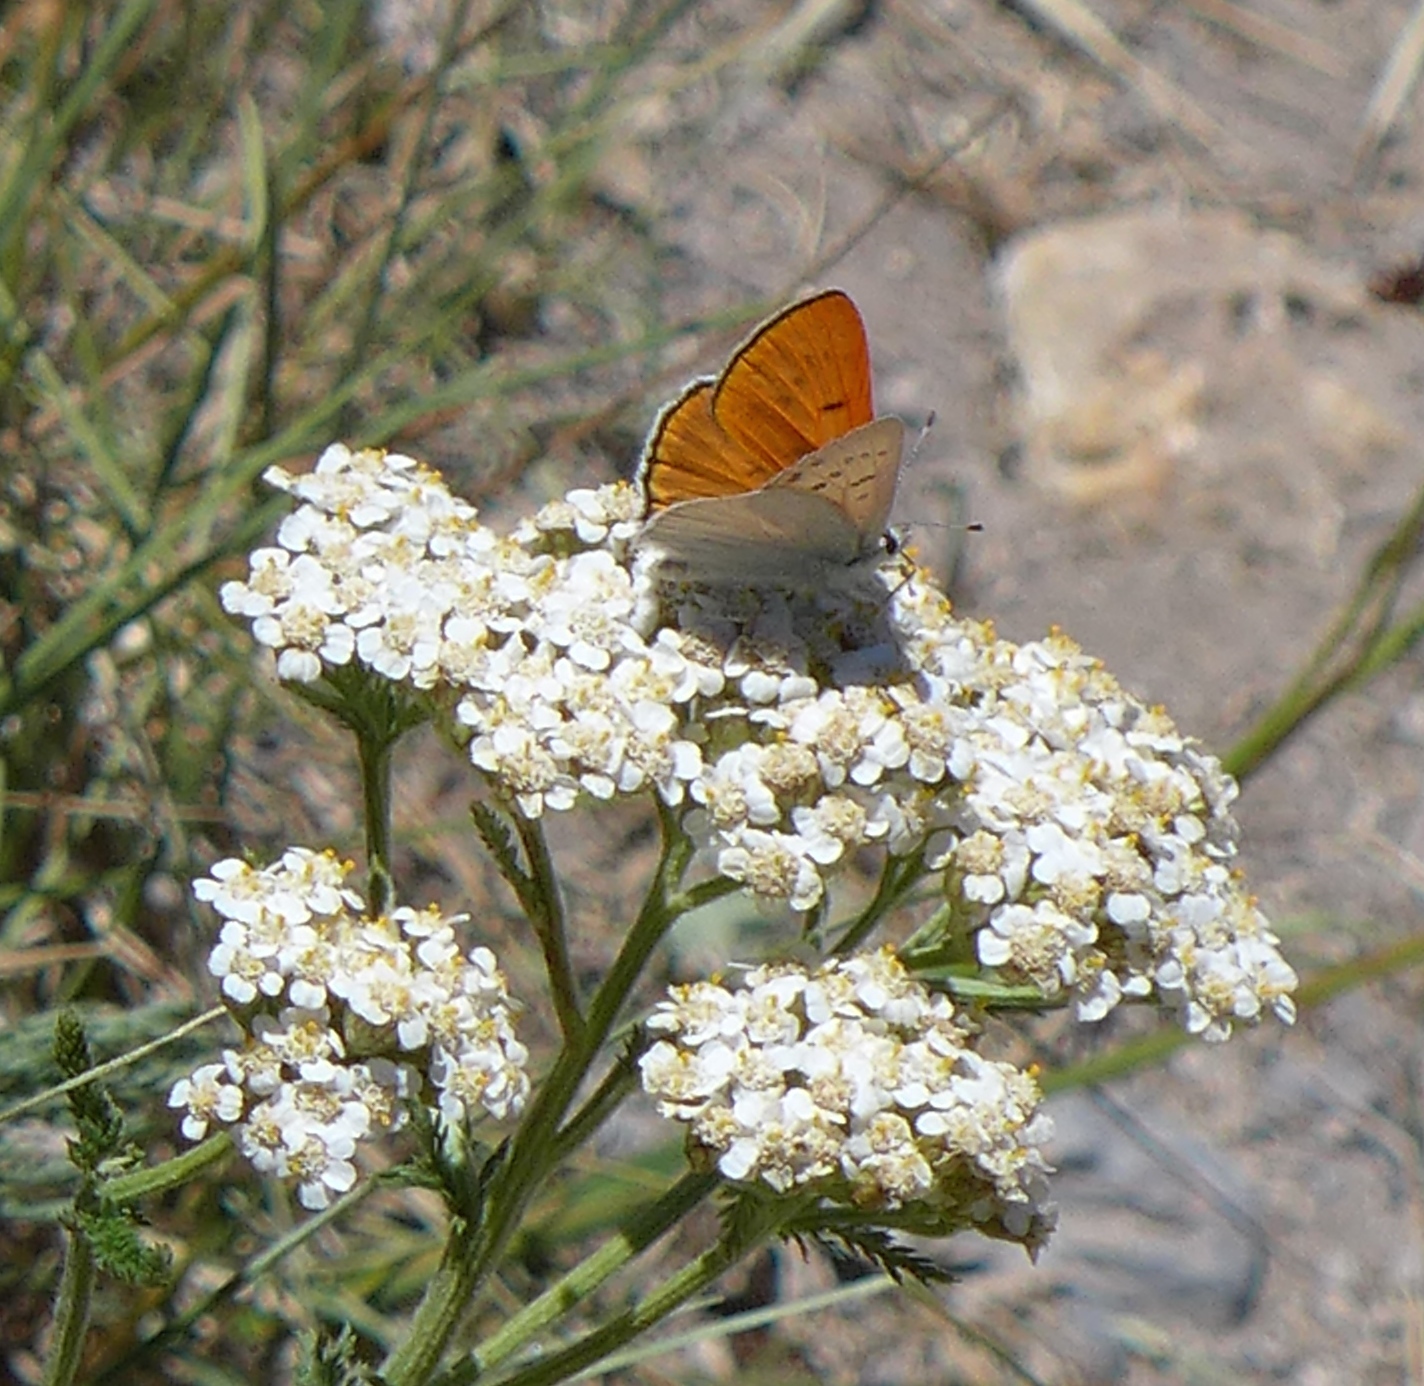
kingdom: Animalia
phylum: Arthropoda
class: Insecta
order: Lepidoptera
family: Lycaenidae
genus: Tharsalea
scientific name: Tharsalea rubidus
